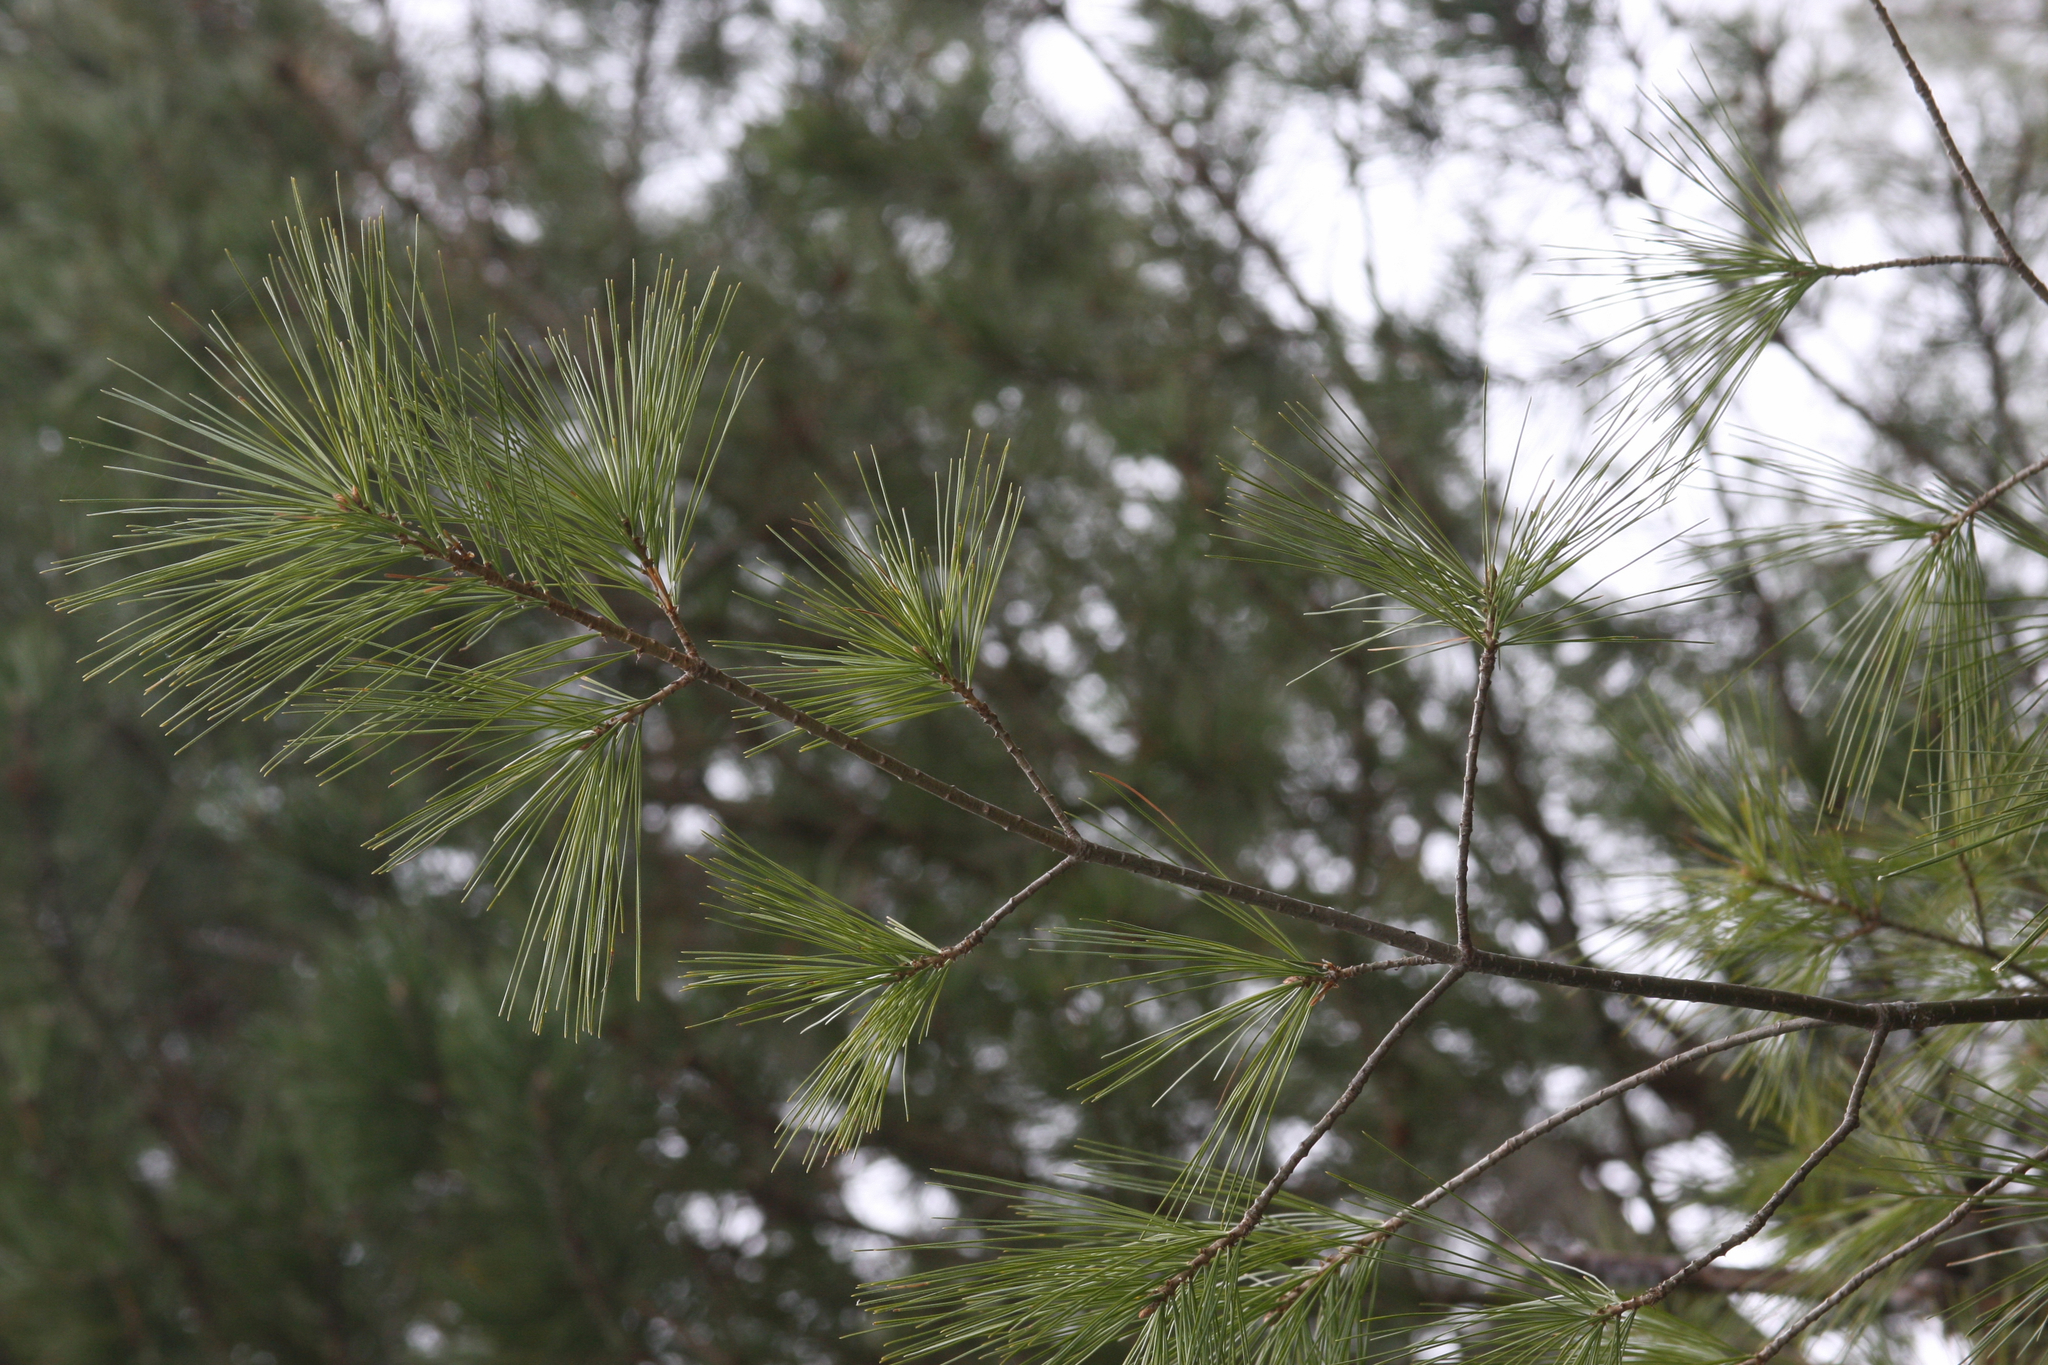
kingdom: Plantae
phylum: Tracheophyta
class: Pinopsida
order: Pinales
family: Pinaceae
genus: Pinus
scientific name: Pinus strobus
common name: Weymouth pine
